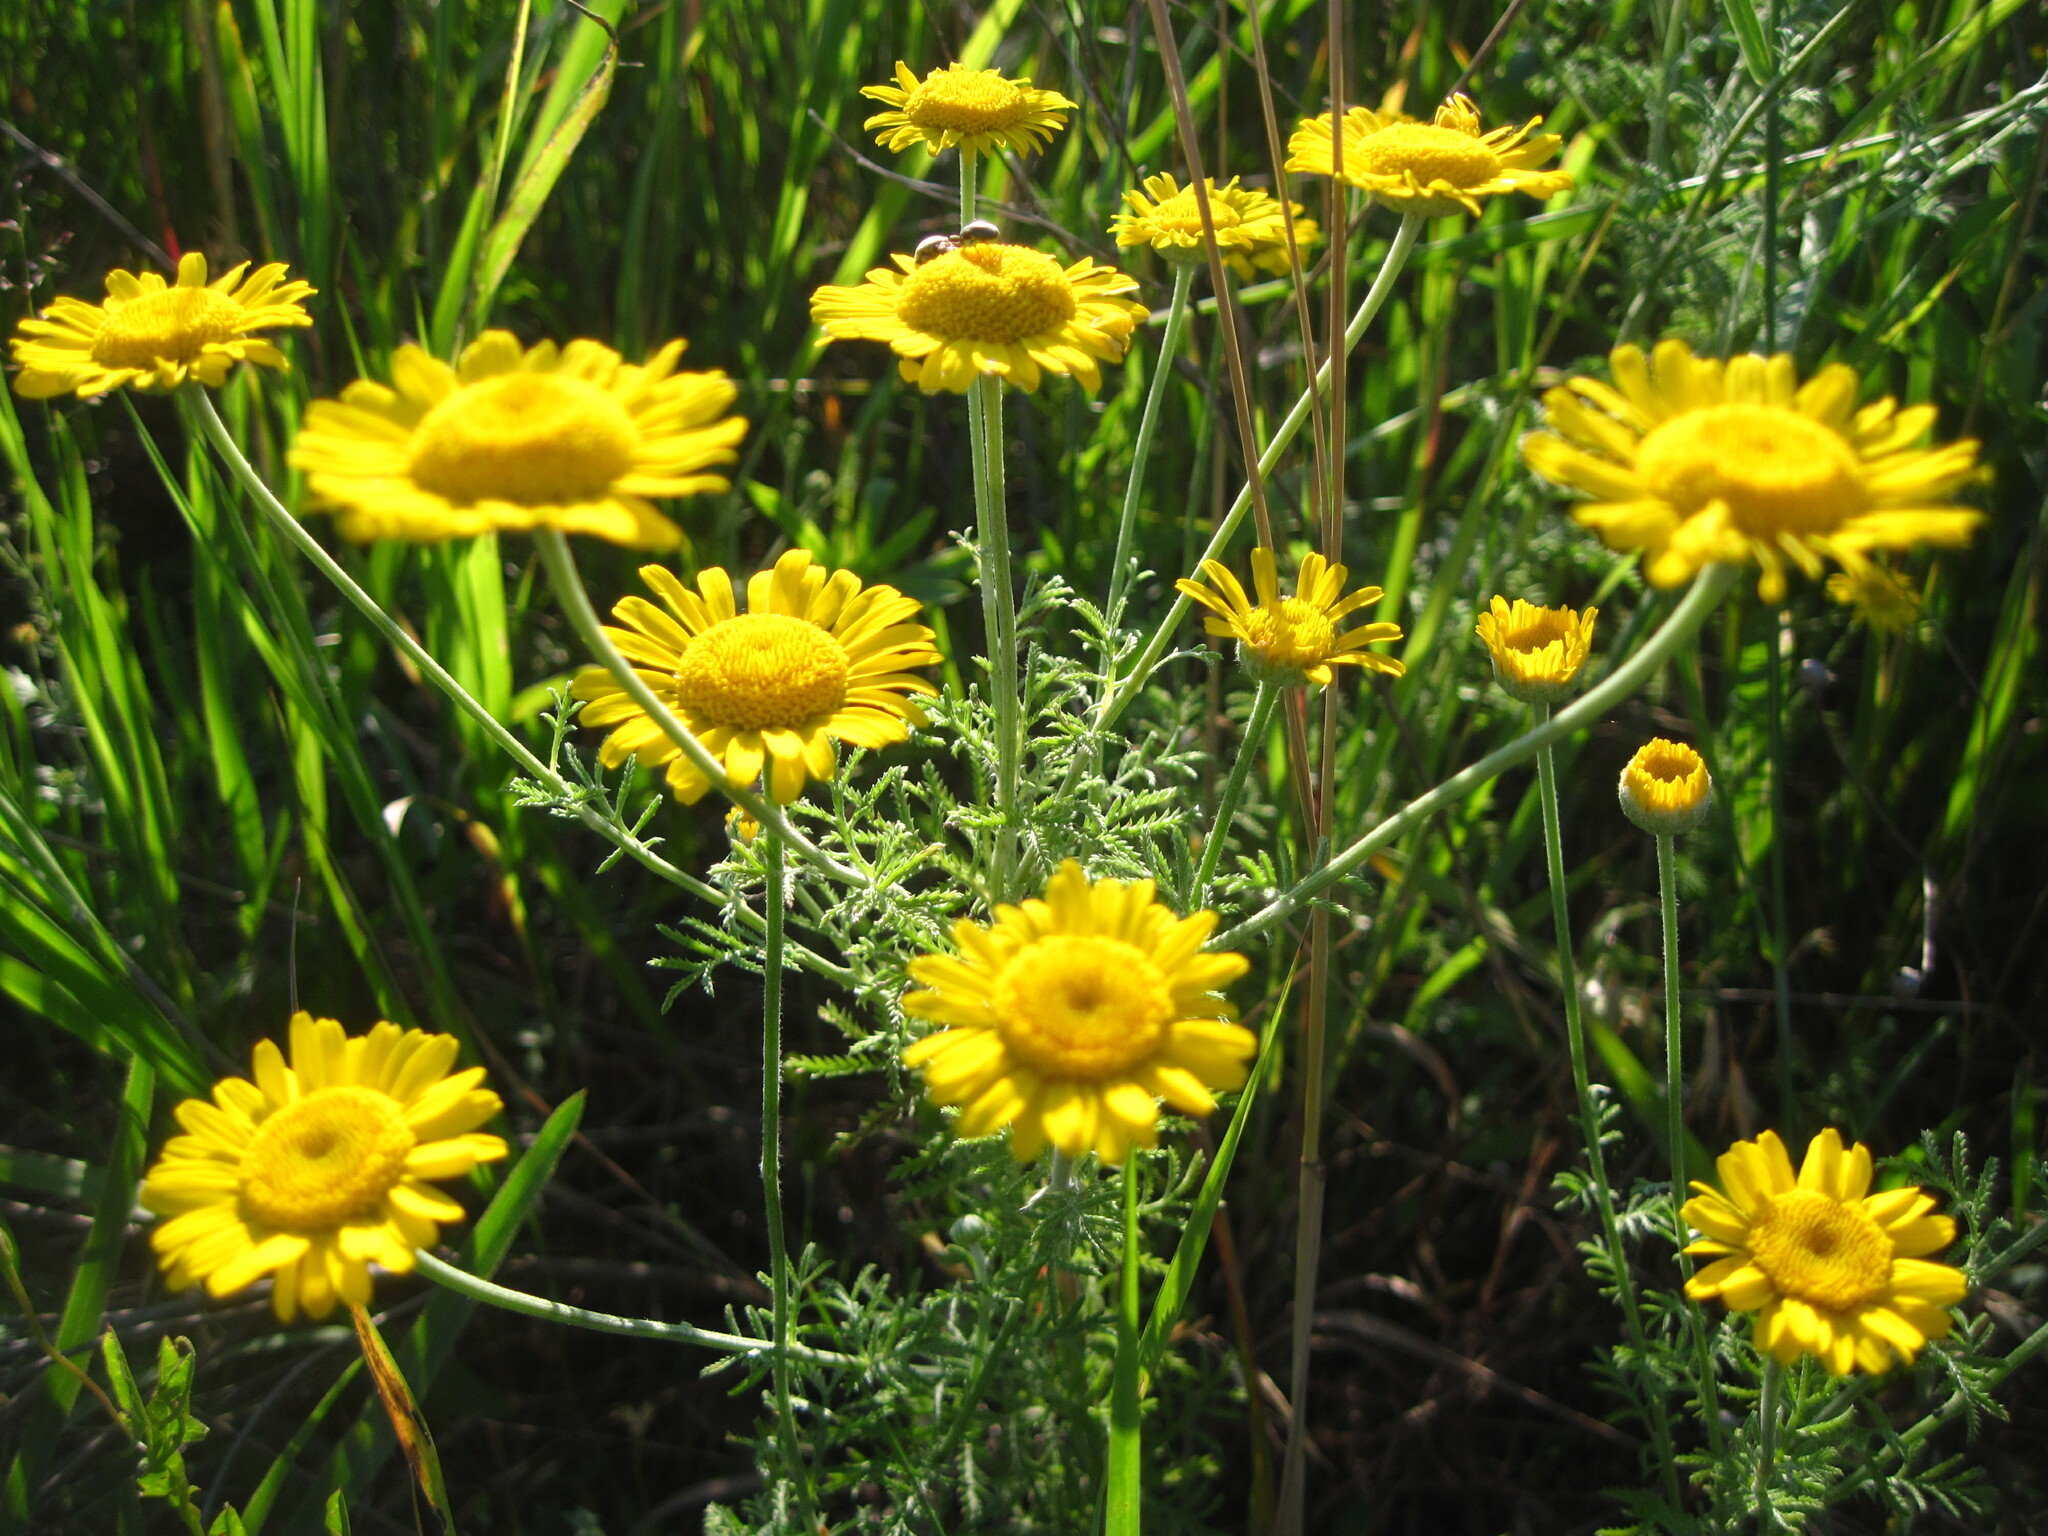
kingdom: Plantae
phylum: Tracheophyta
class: Magnoliopsida
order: Asterales
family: Asteraceae
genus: Cota
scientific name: Cota tinctoria
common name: Golden chamomile
